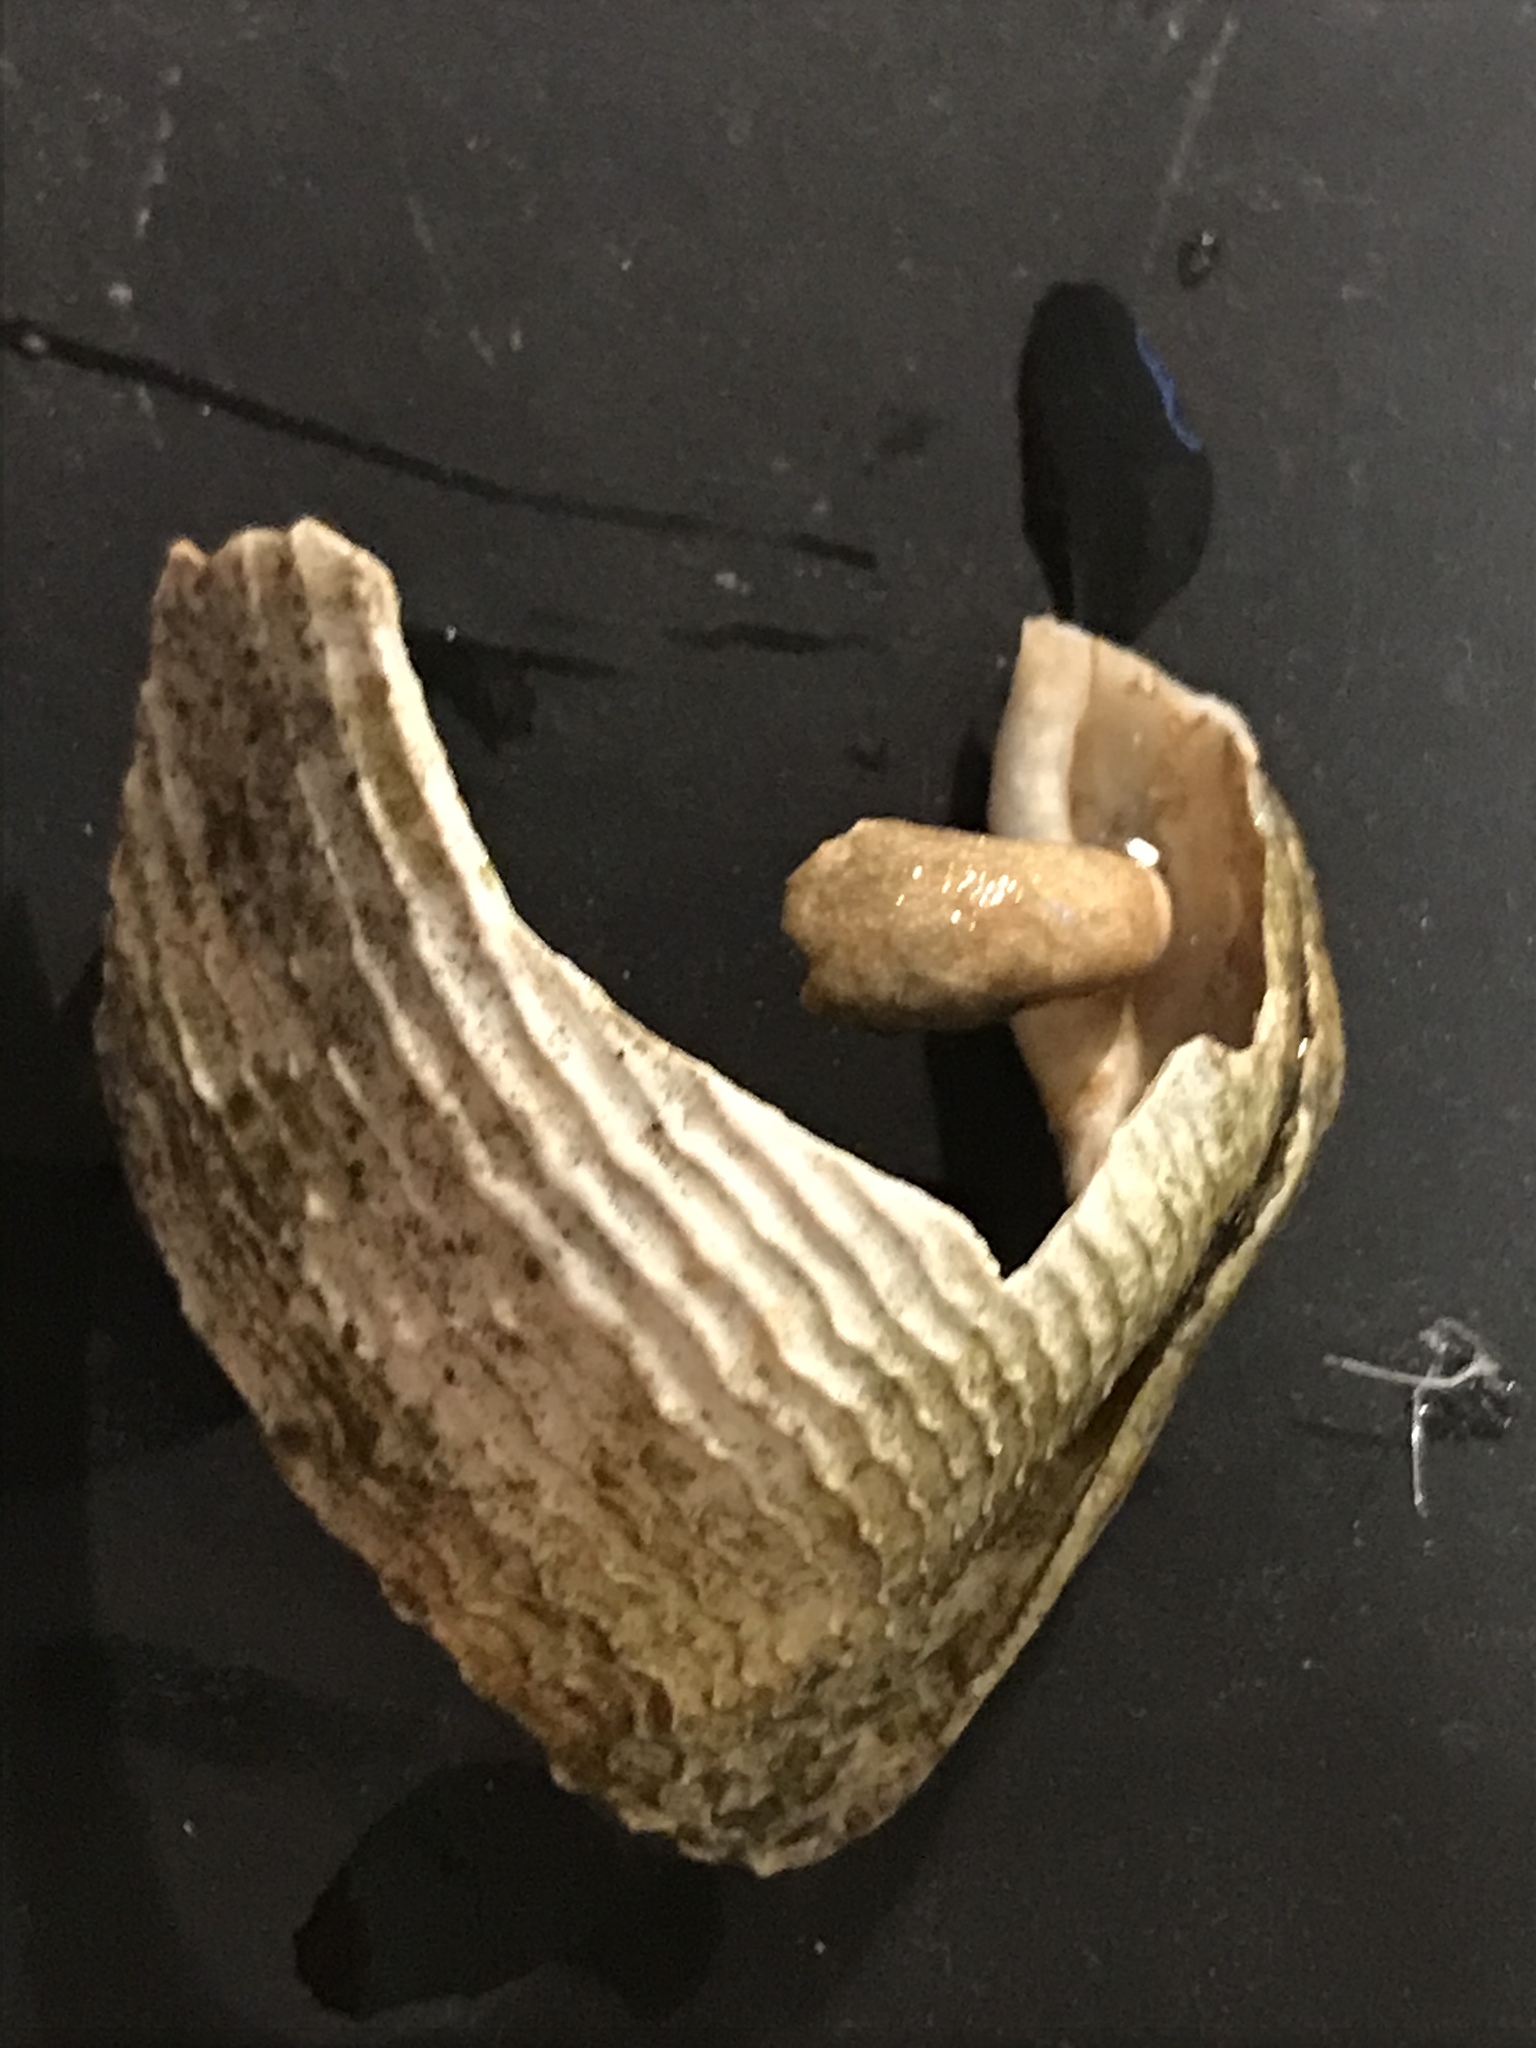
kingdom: Animalia
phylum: Mollusca
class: Bivalvia
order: Myida
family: Pholadidae
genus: Zirfaea
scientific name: Zirfaea pilsbryi
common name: Rough piddock
